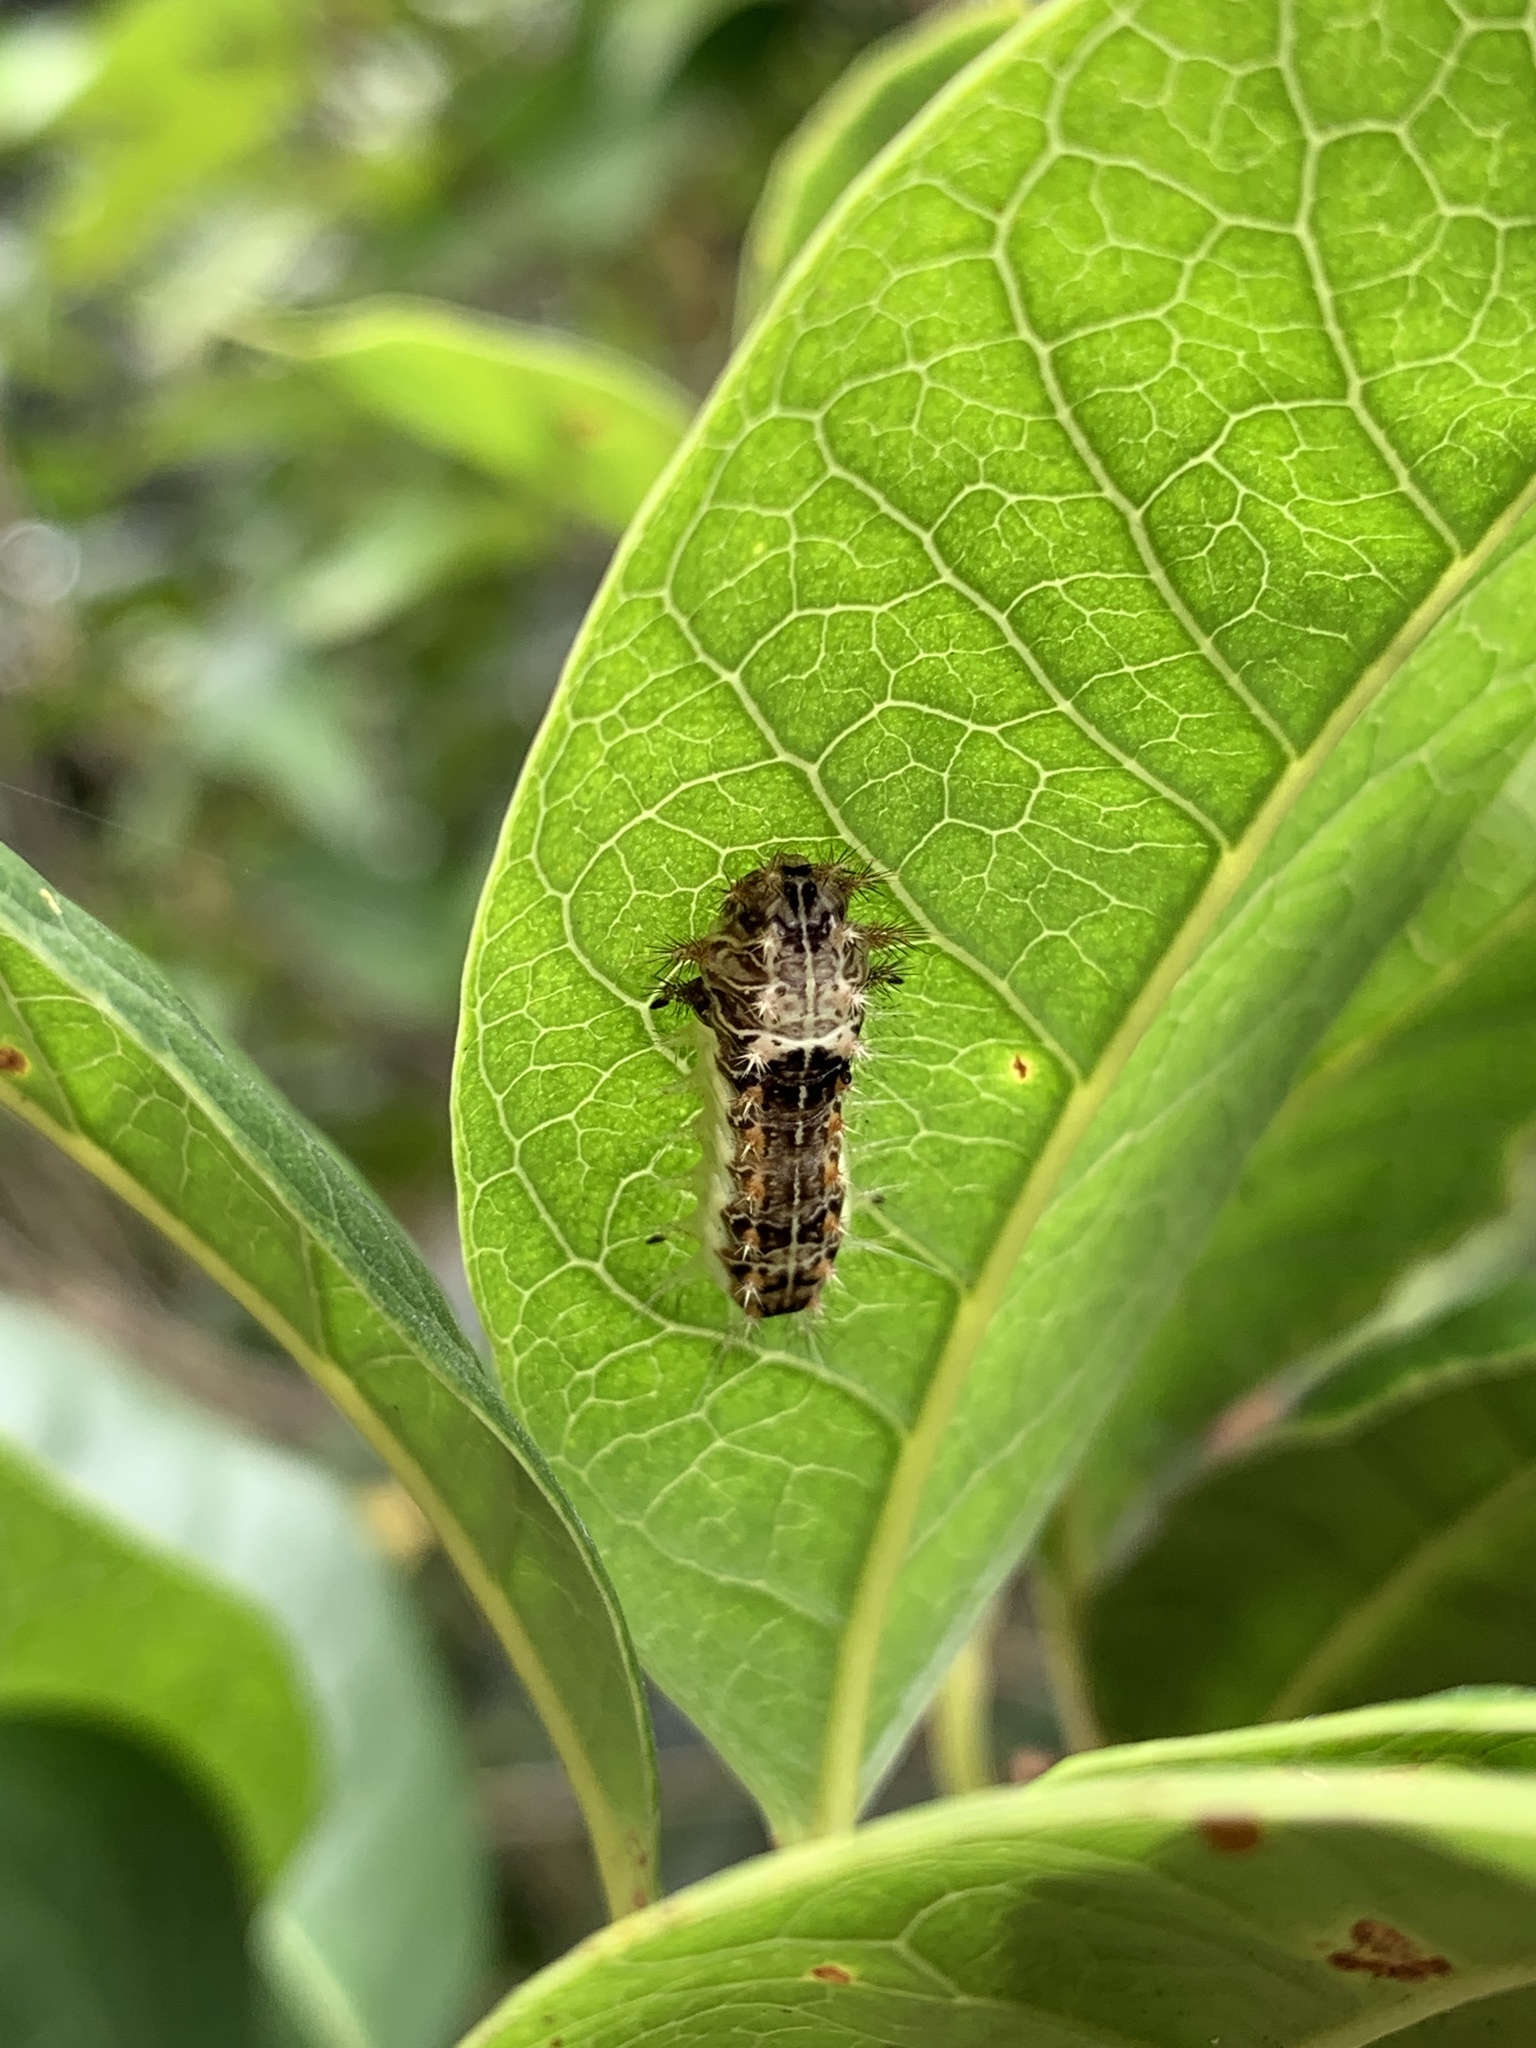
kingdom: Animalia
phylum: Arthropoda
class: Insecta
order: Lepidoptera
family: Limacodidae
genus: Orthocraspeda
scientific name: Orthocraspeda furva
